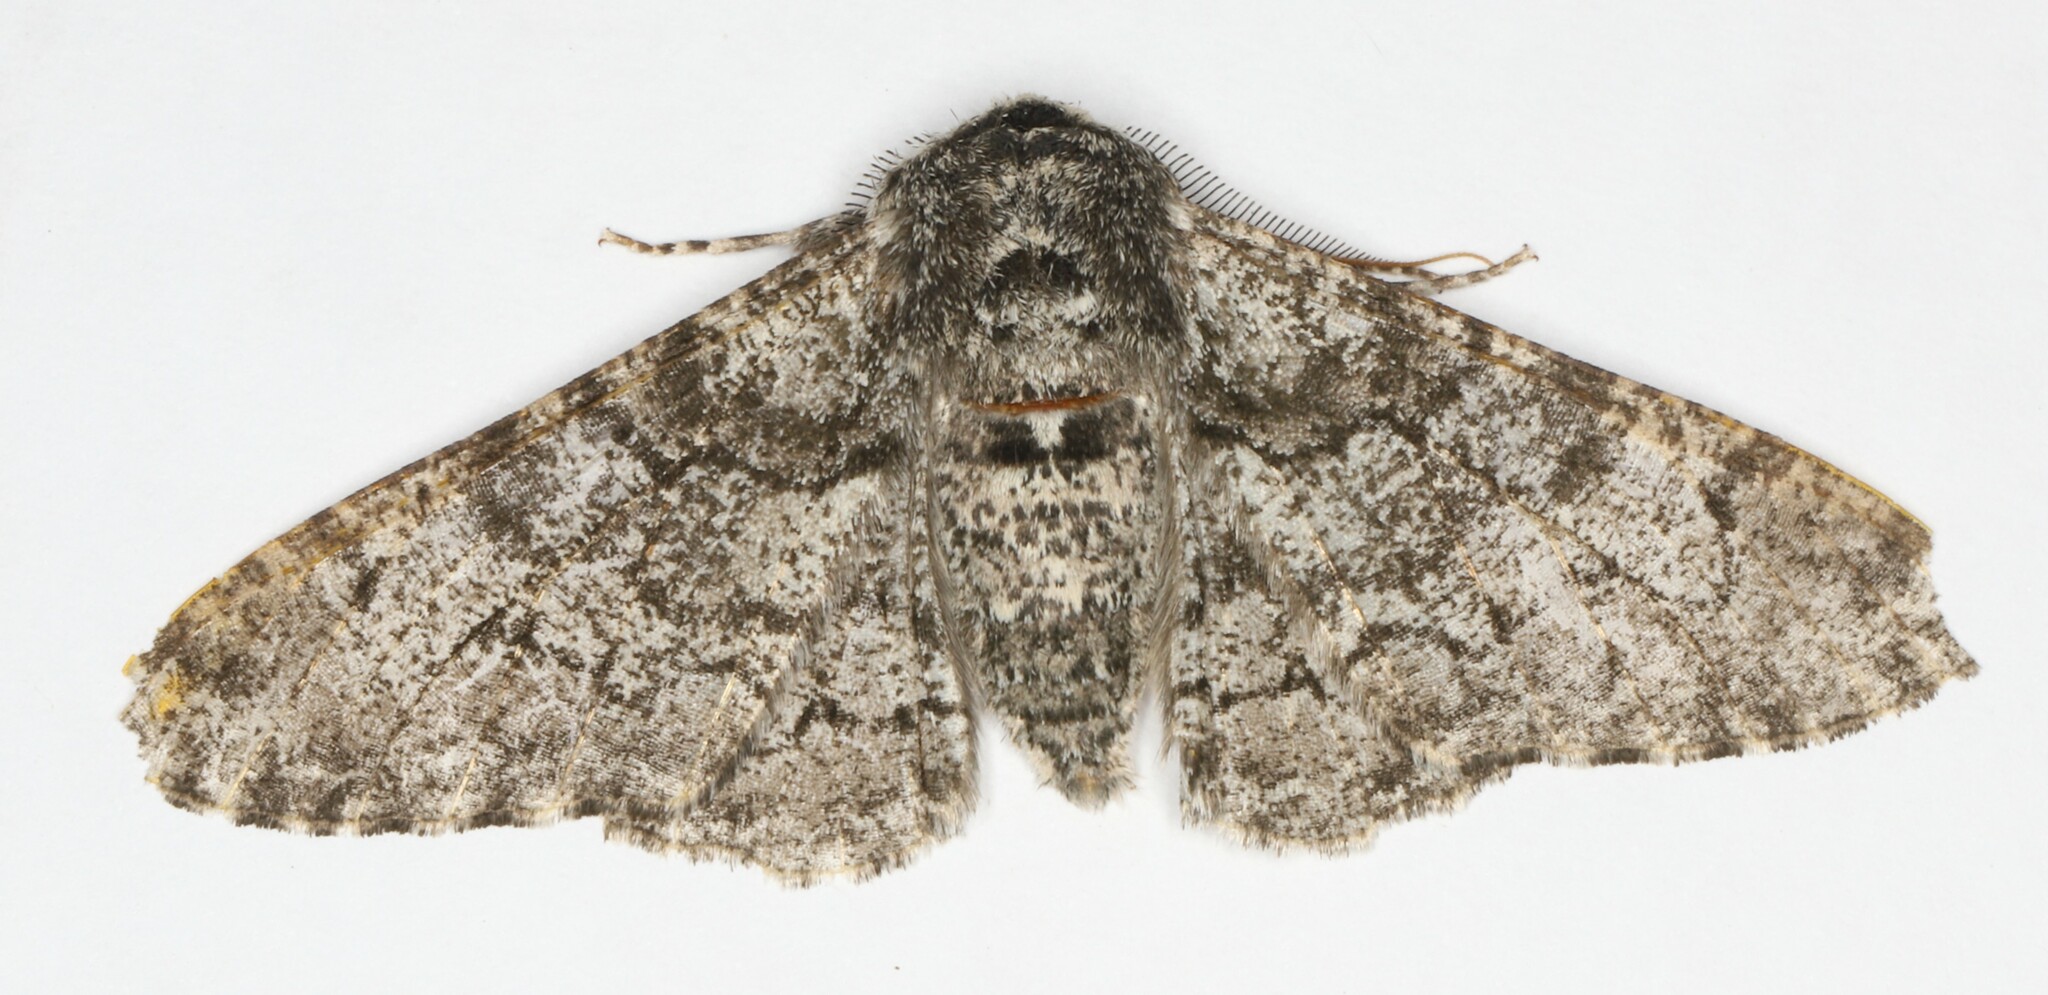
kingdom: Animalia
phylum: Arthropoda
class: Insecta
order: Lepidoptera
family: Geometridae
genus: Biston
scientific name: Biston betularia
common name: Peppered moth
